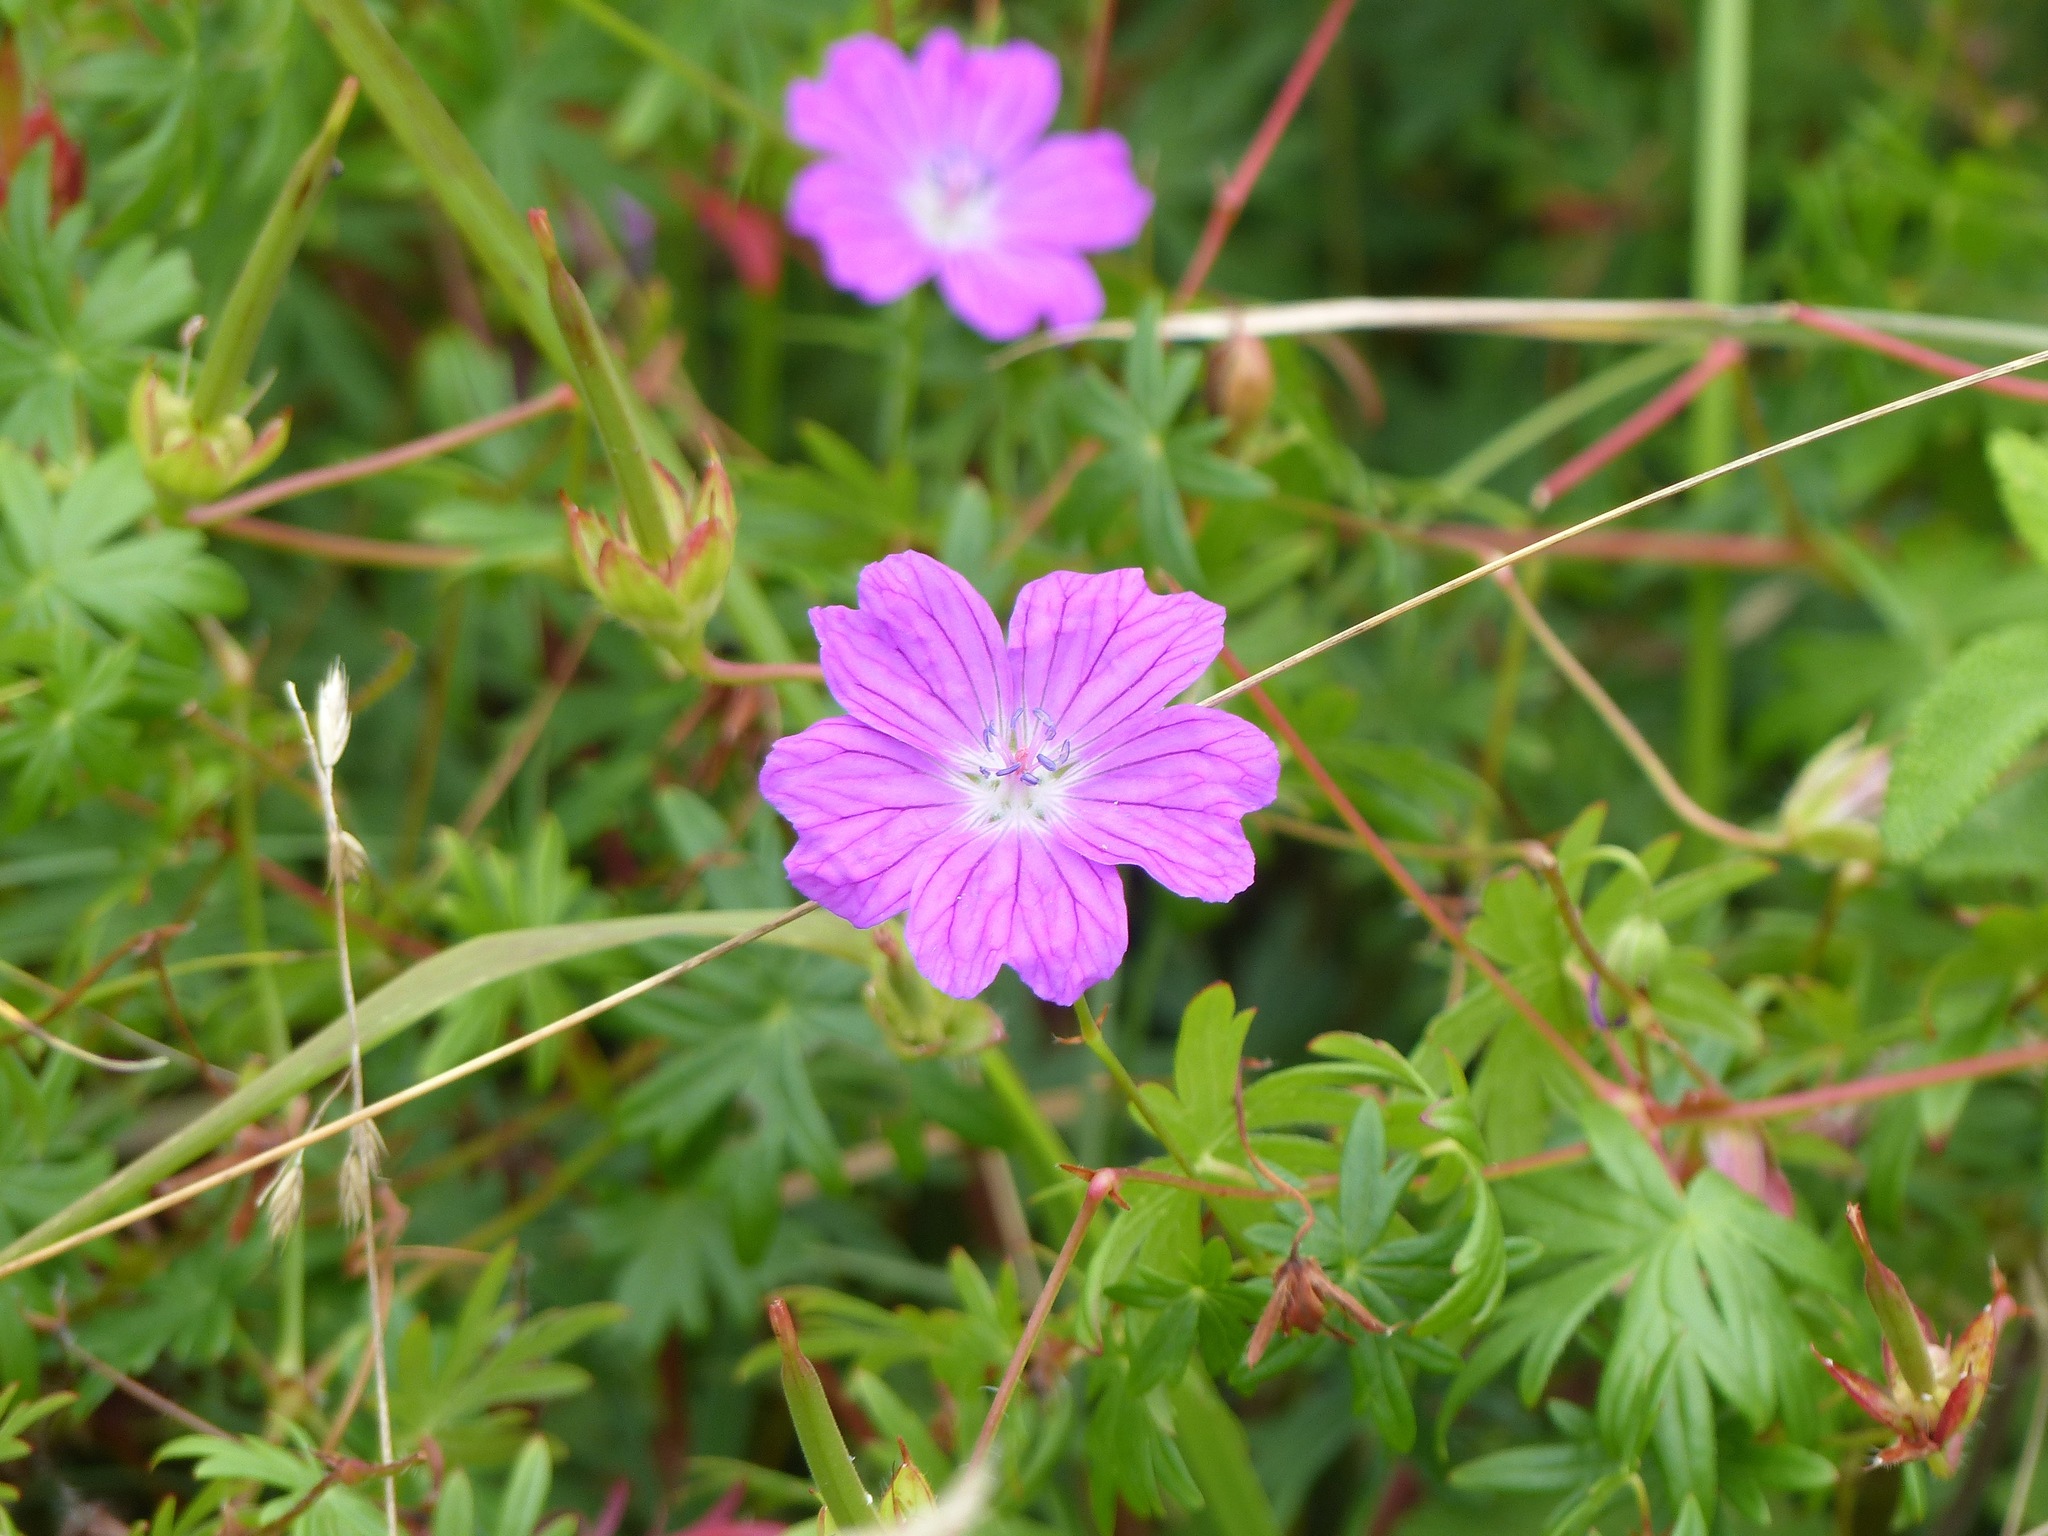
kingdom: Plantae
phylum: Tracheophyta
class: Magnoliopsida
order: Geraniales
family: Geraniaceae
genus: Geranium
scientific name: Geranium sanguineum
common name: Bloody crane's-bill
